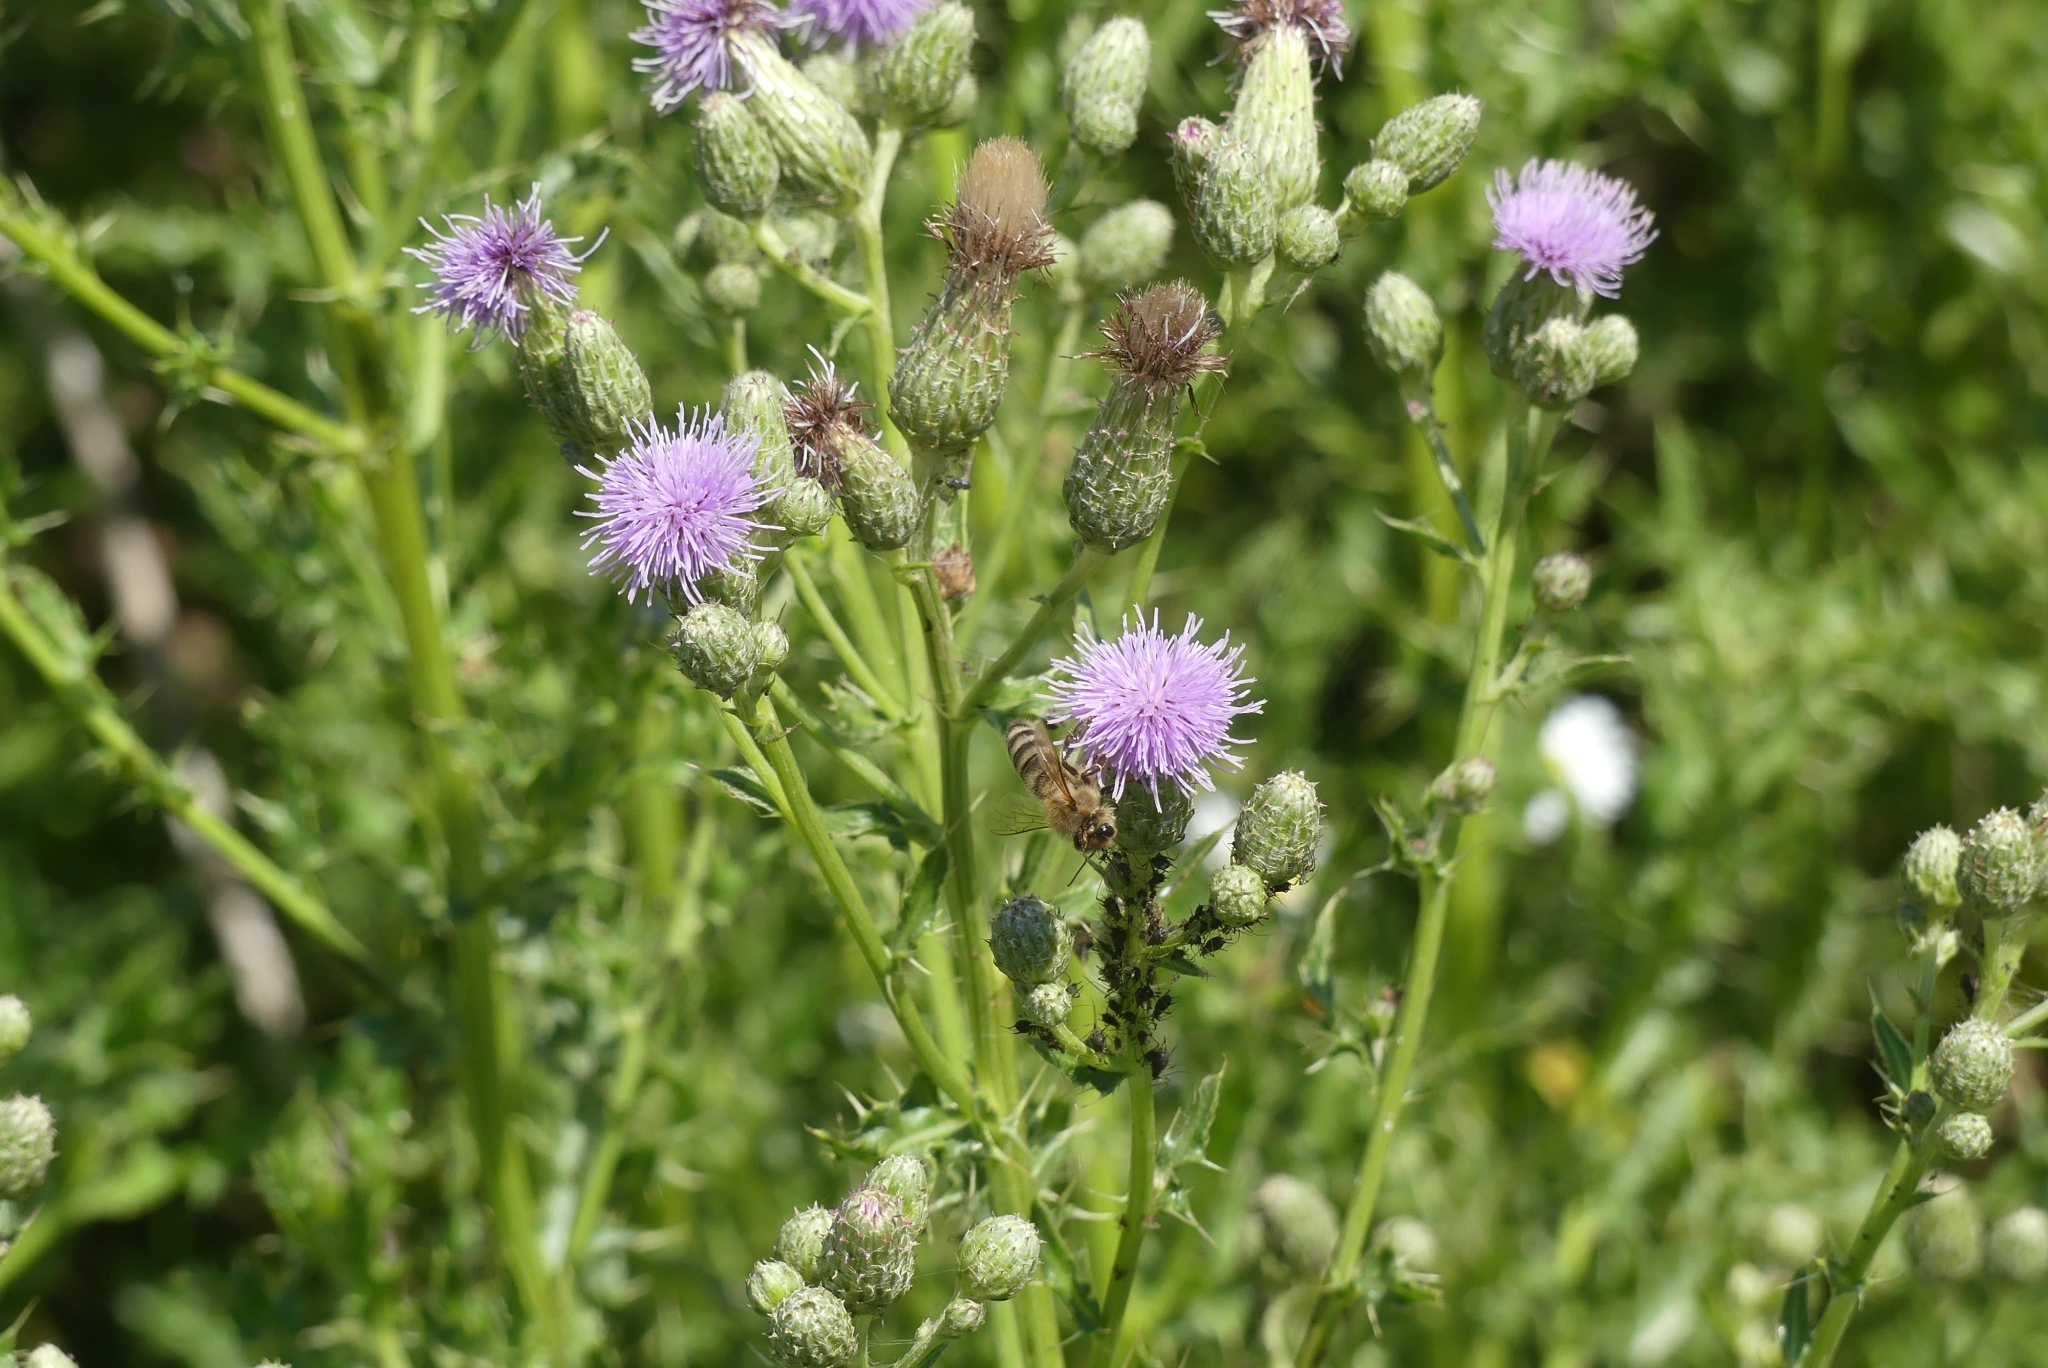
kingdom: Animalia
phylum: Arthropoda
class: Insecta
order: Hymenoptera
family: Apidae
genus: Apis
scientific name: Apis mellifera
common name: Honey bee
